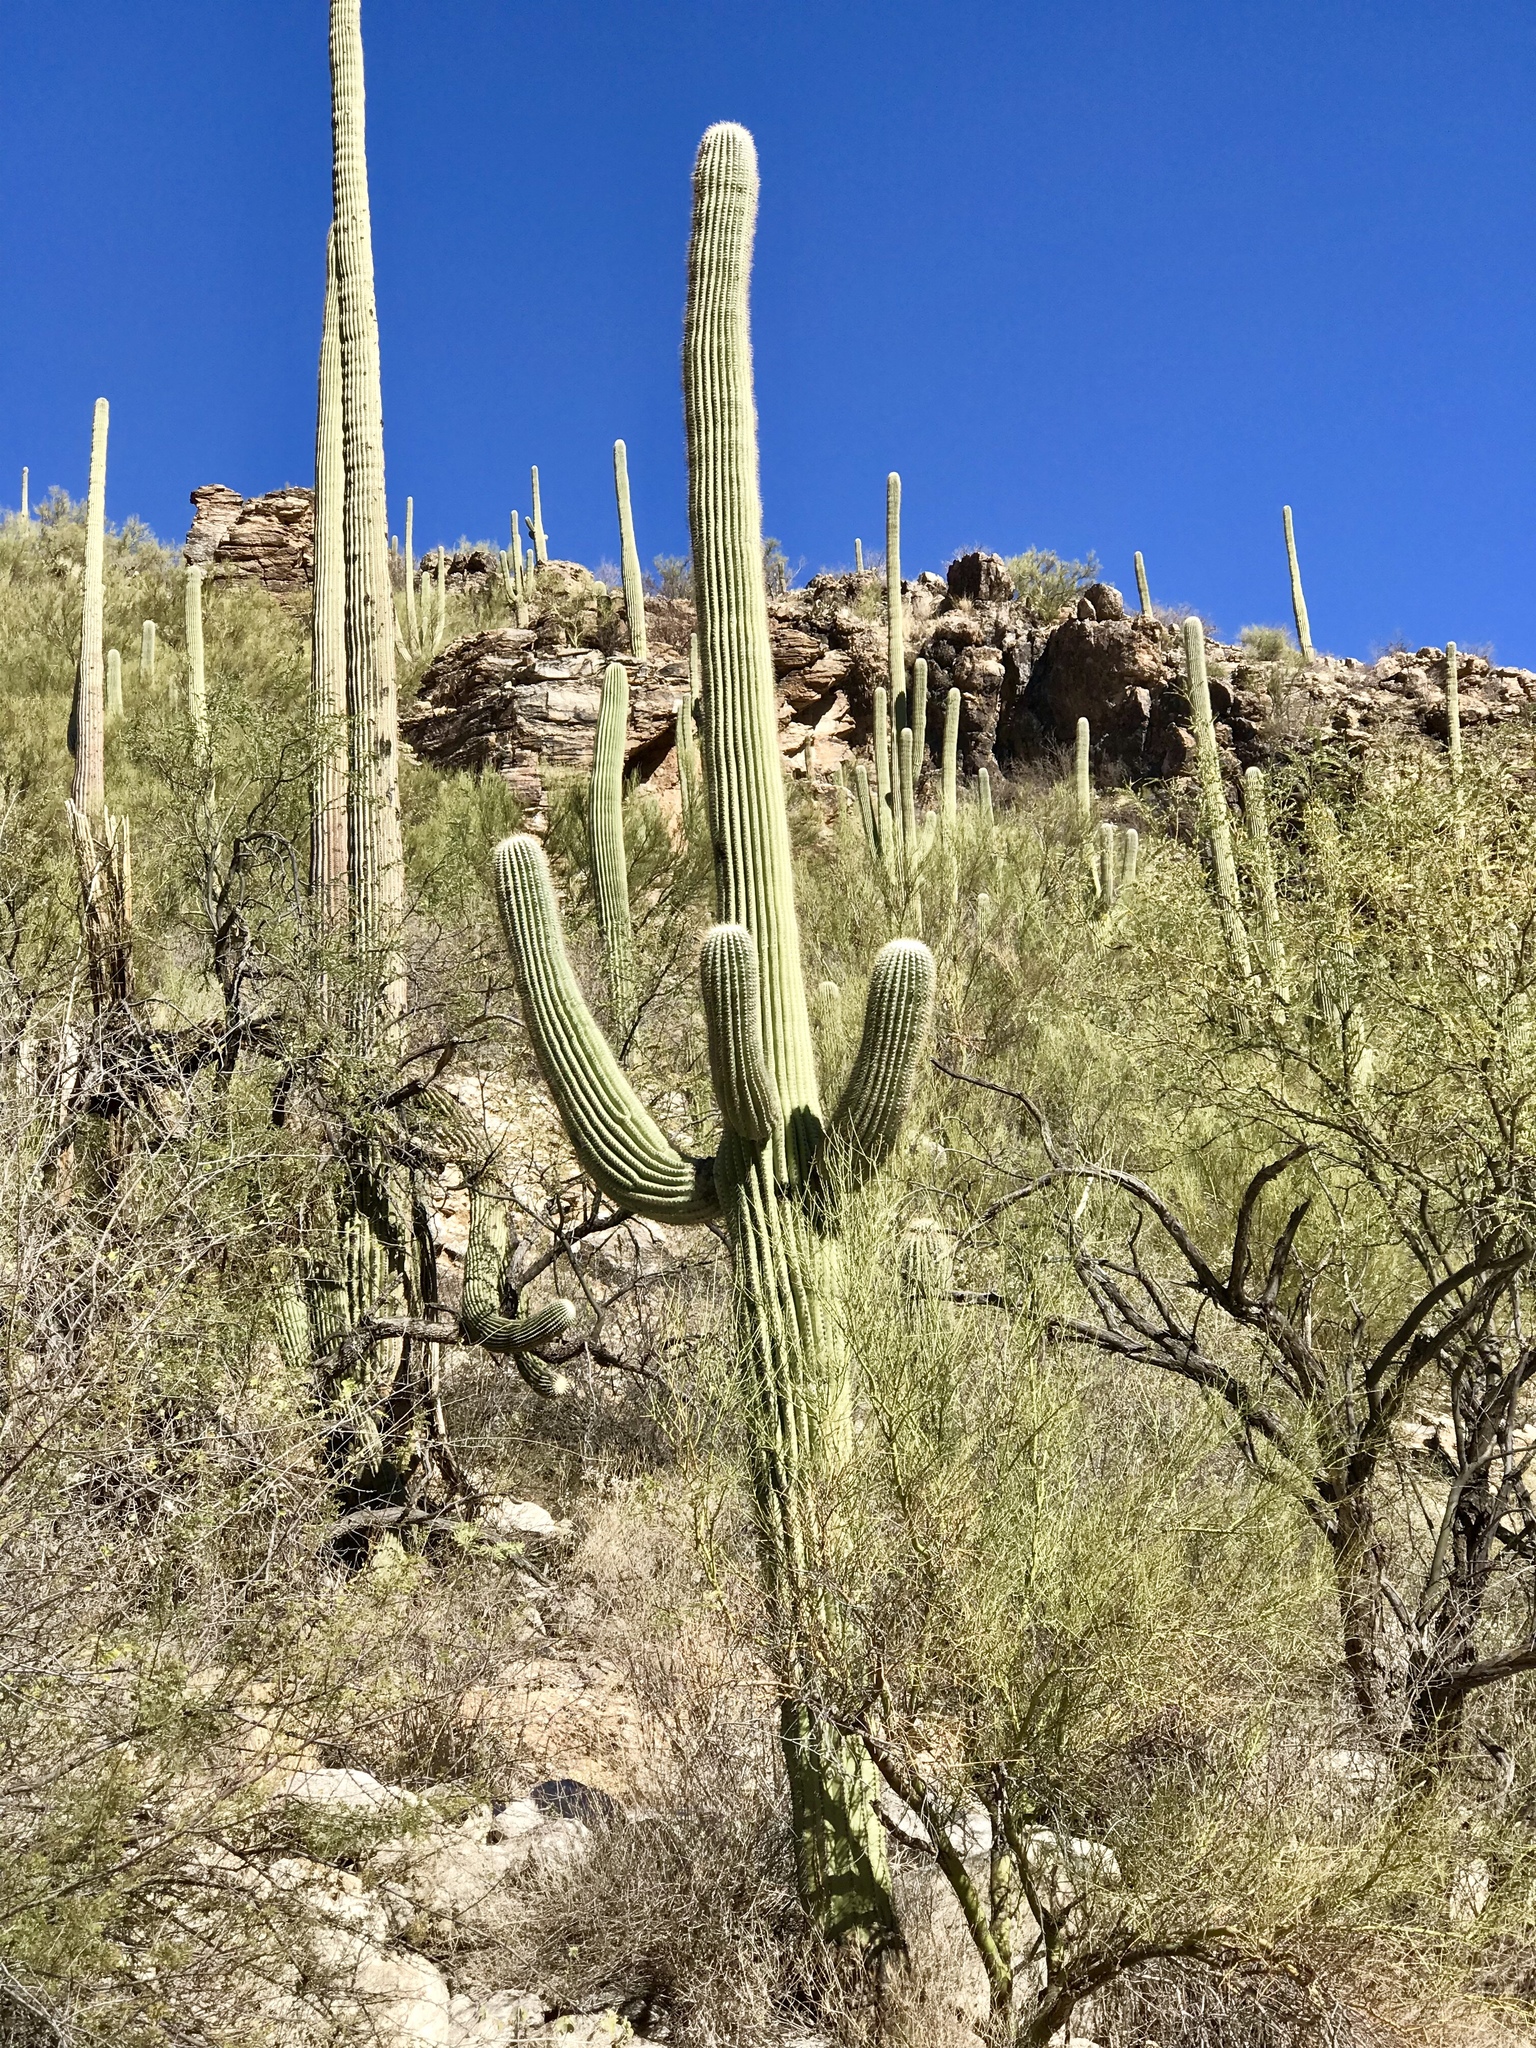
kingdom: Plantae
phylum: Tracheophyta
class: Magnoliopsida
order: Caryophyllales
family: Cactaceae
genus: Carnegiea
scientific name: Carnegiea gigantea
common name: Saguaro
